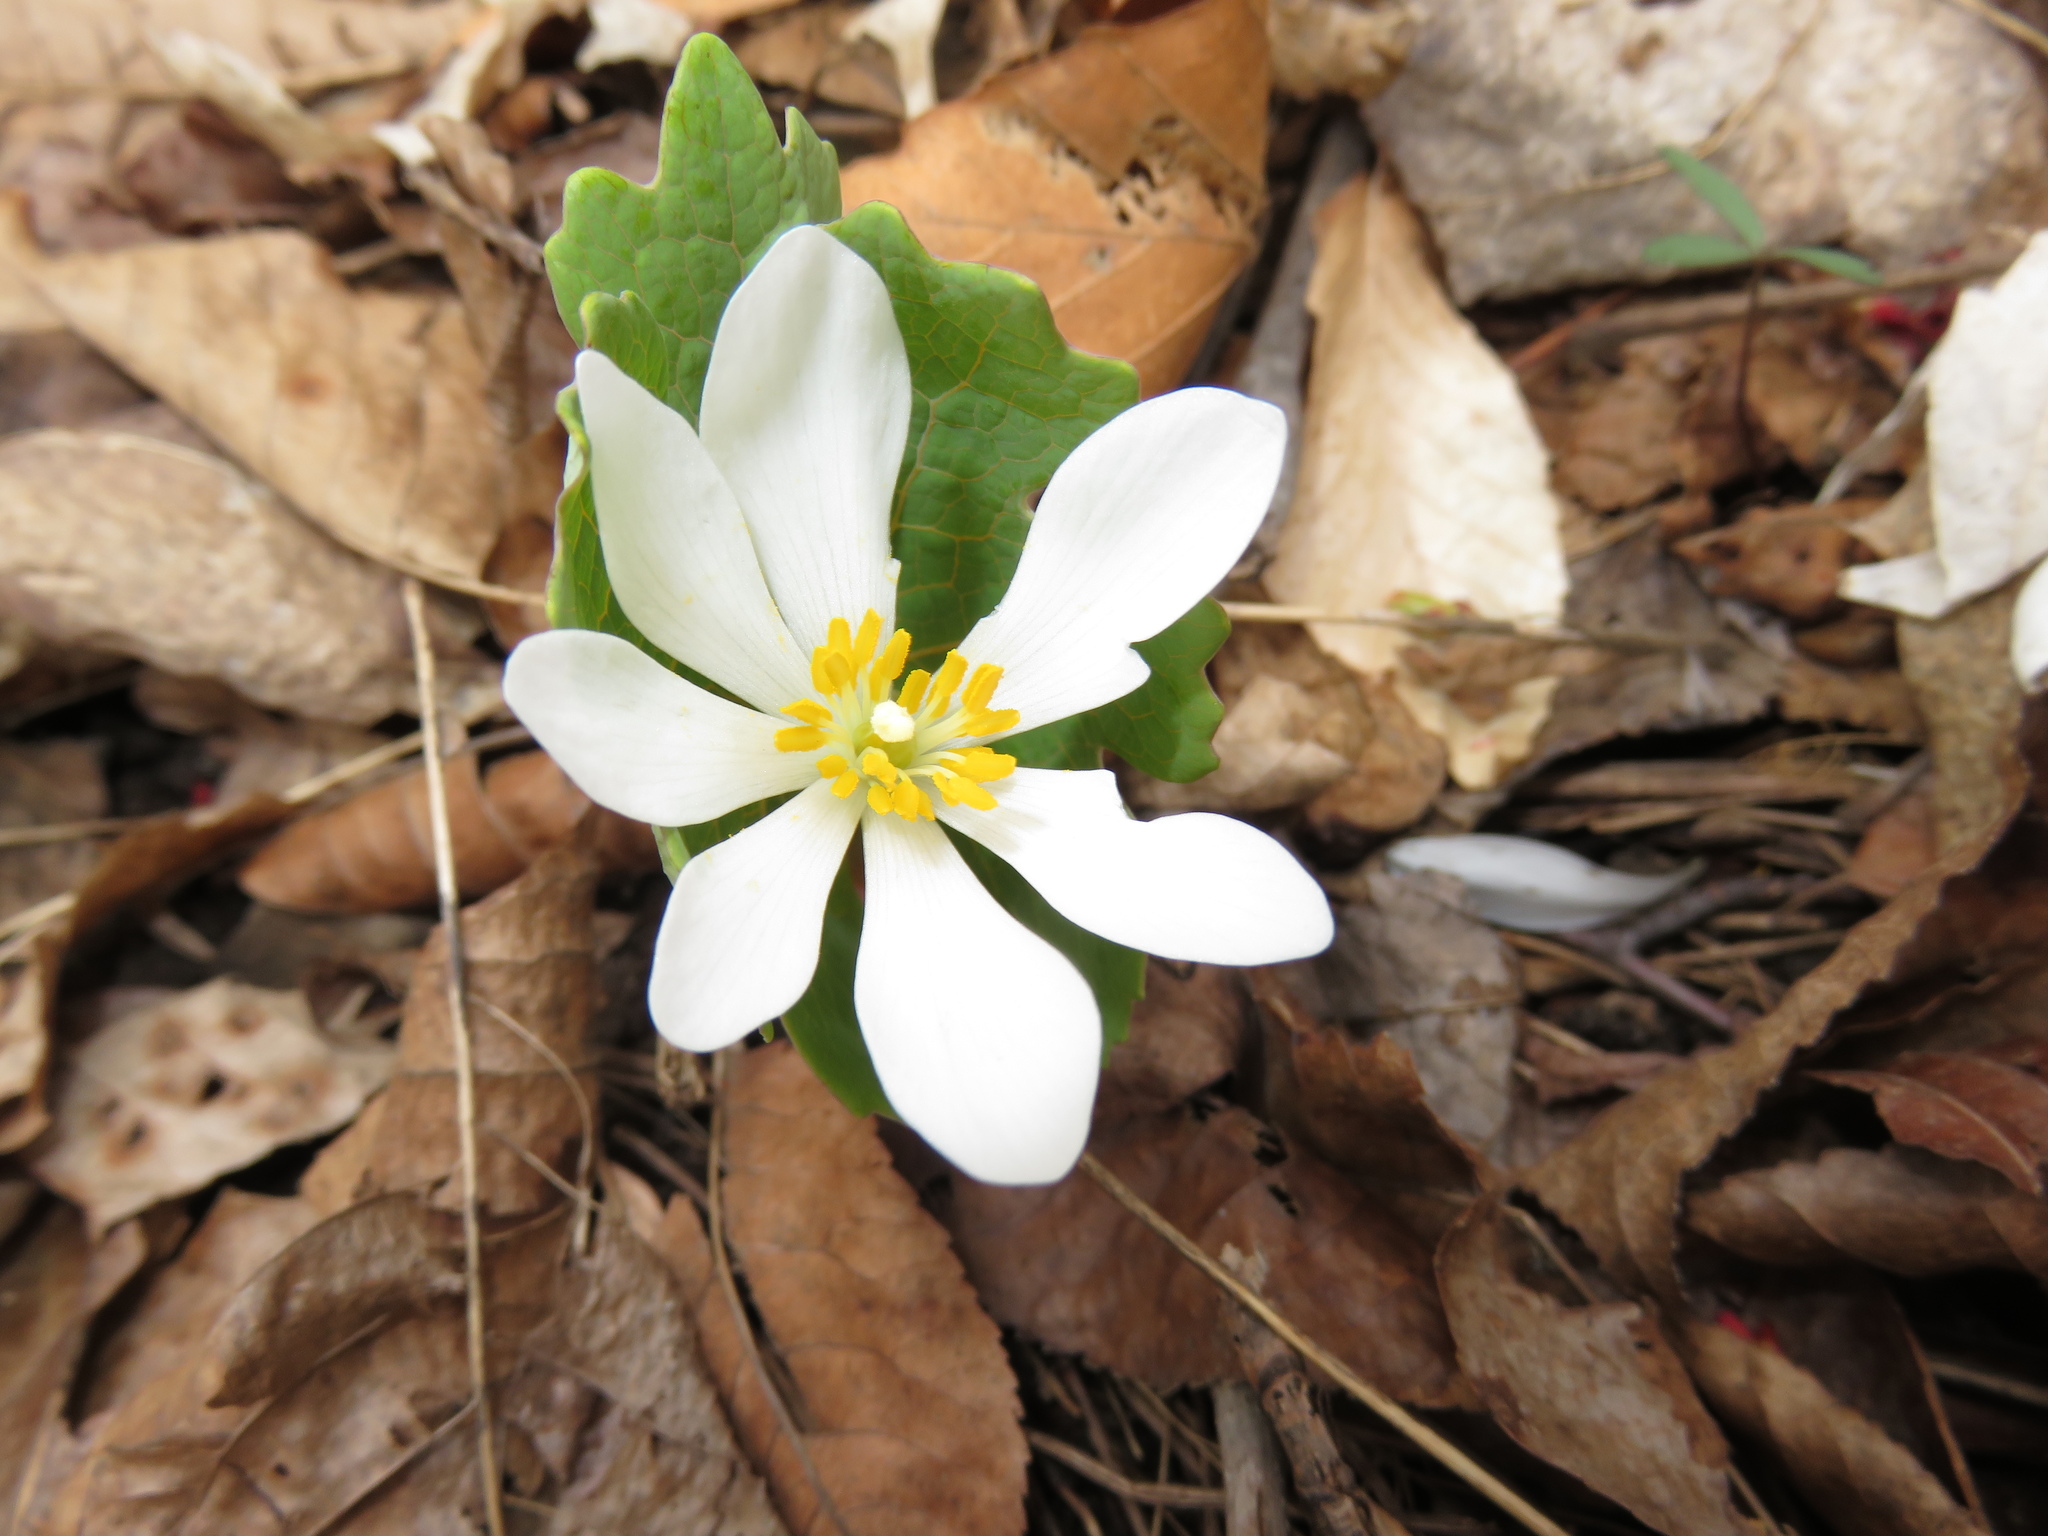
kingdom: Plantae
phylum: Tracheophyta
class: Magnoliopsida
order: Ranunculales
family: Papaveraceae
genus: Sanguinaria
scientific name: Sanguinaria canadensis
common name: Bloodroot
